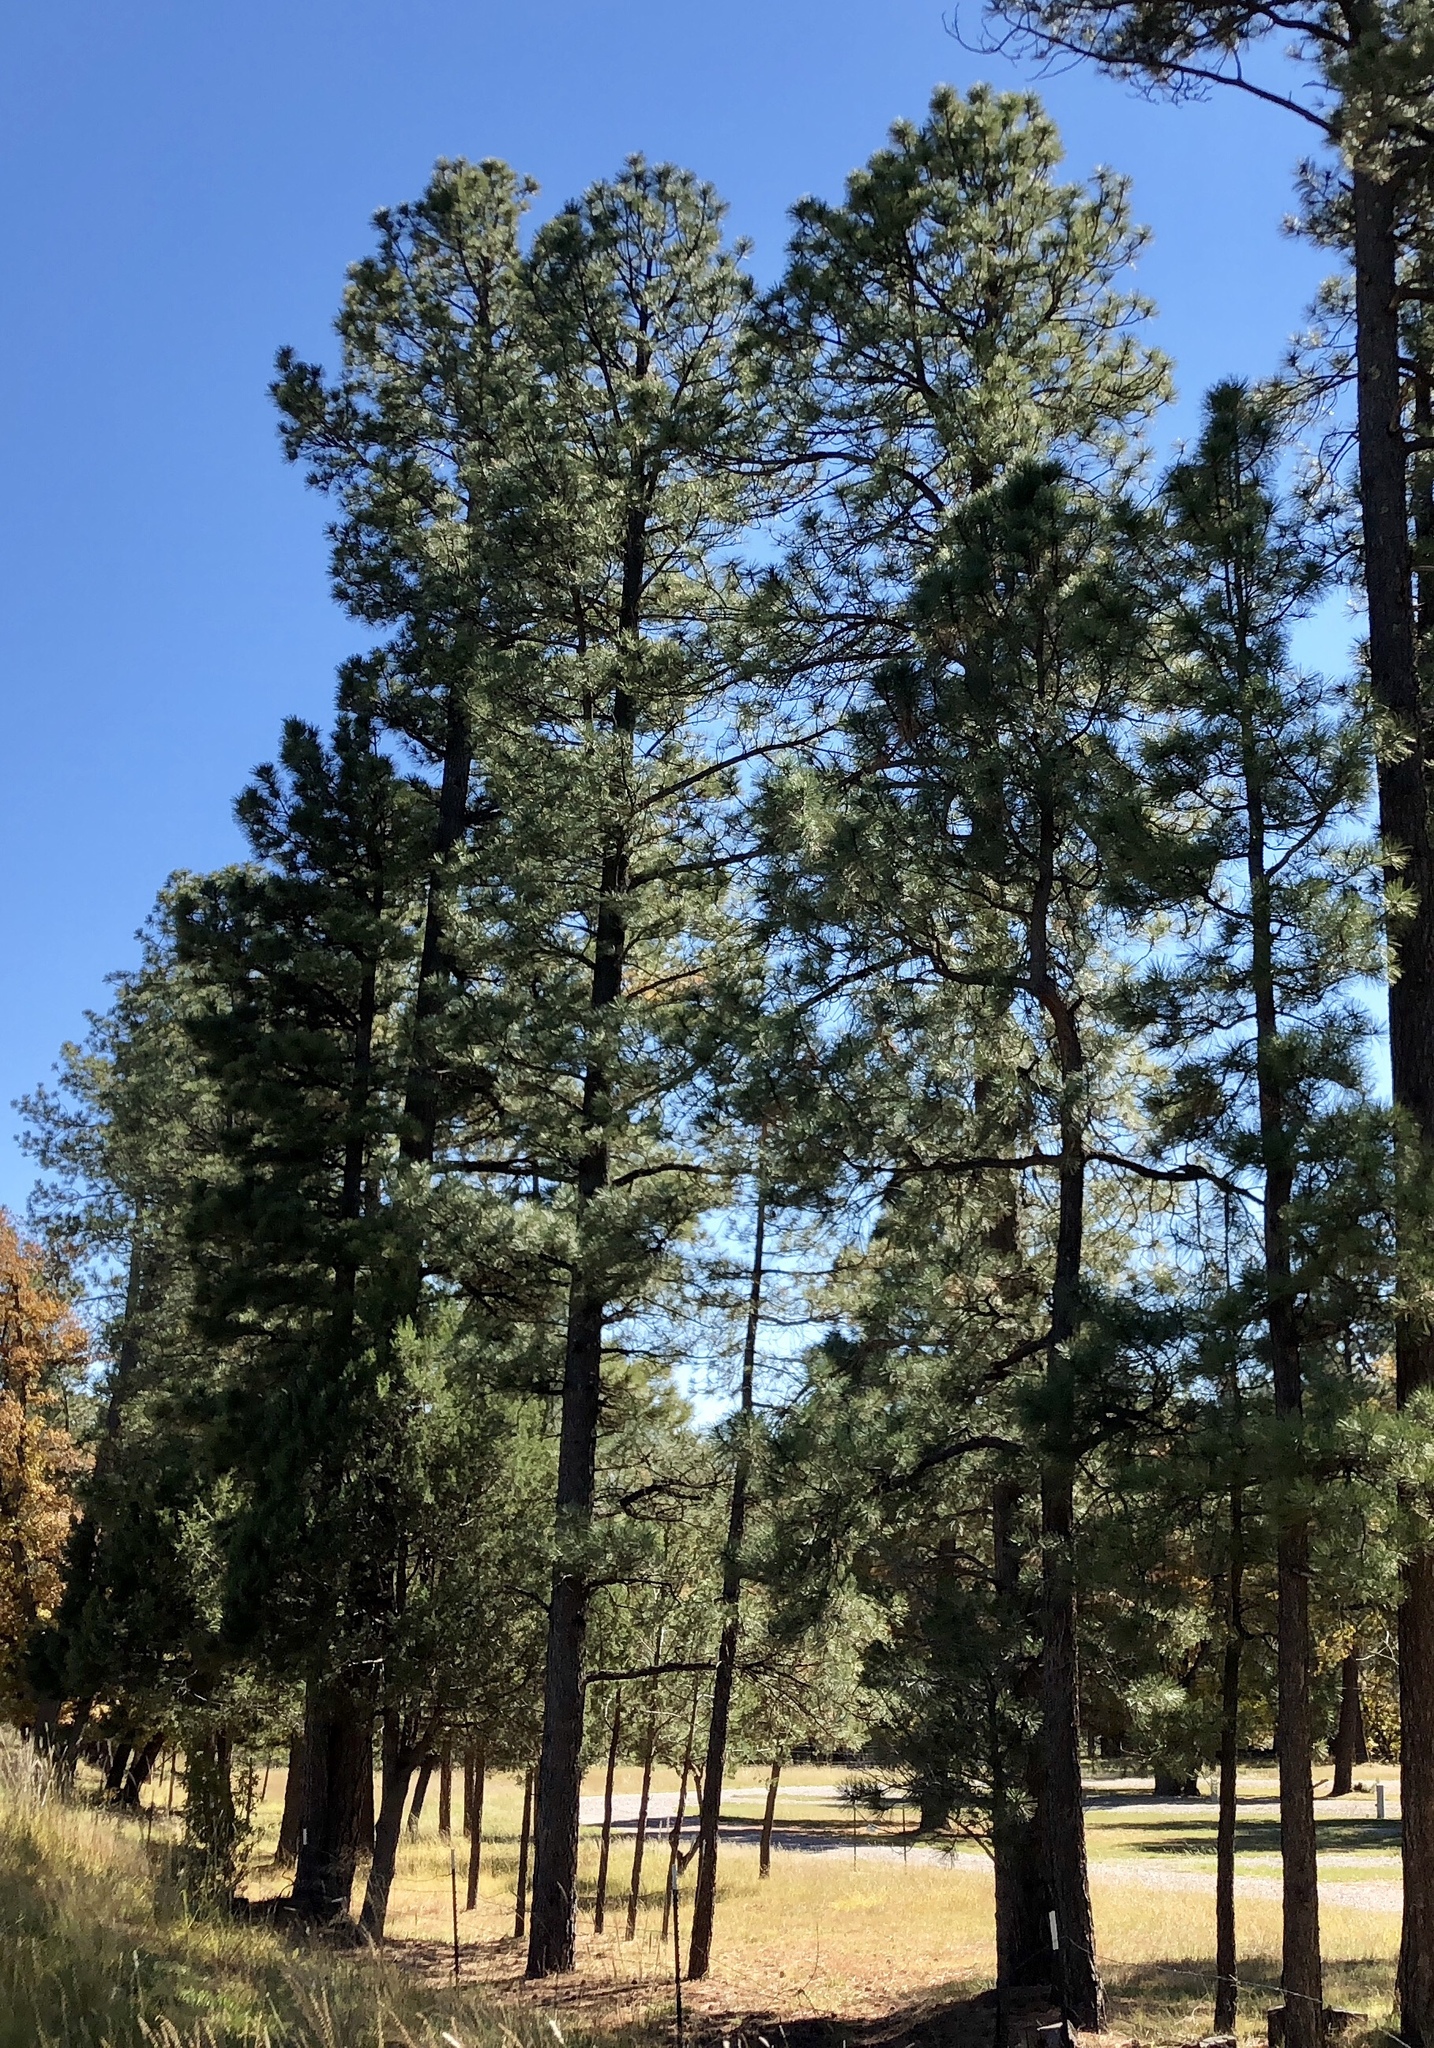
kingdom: Plantae
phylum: Tracheophyta
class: Pinopsida
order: Pinales
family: Pinaceae
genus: Pinus
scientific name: Pinus ponderosa
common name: Western yellow-pine
